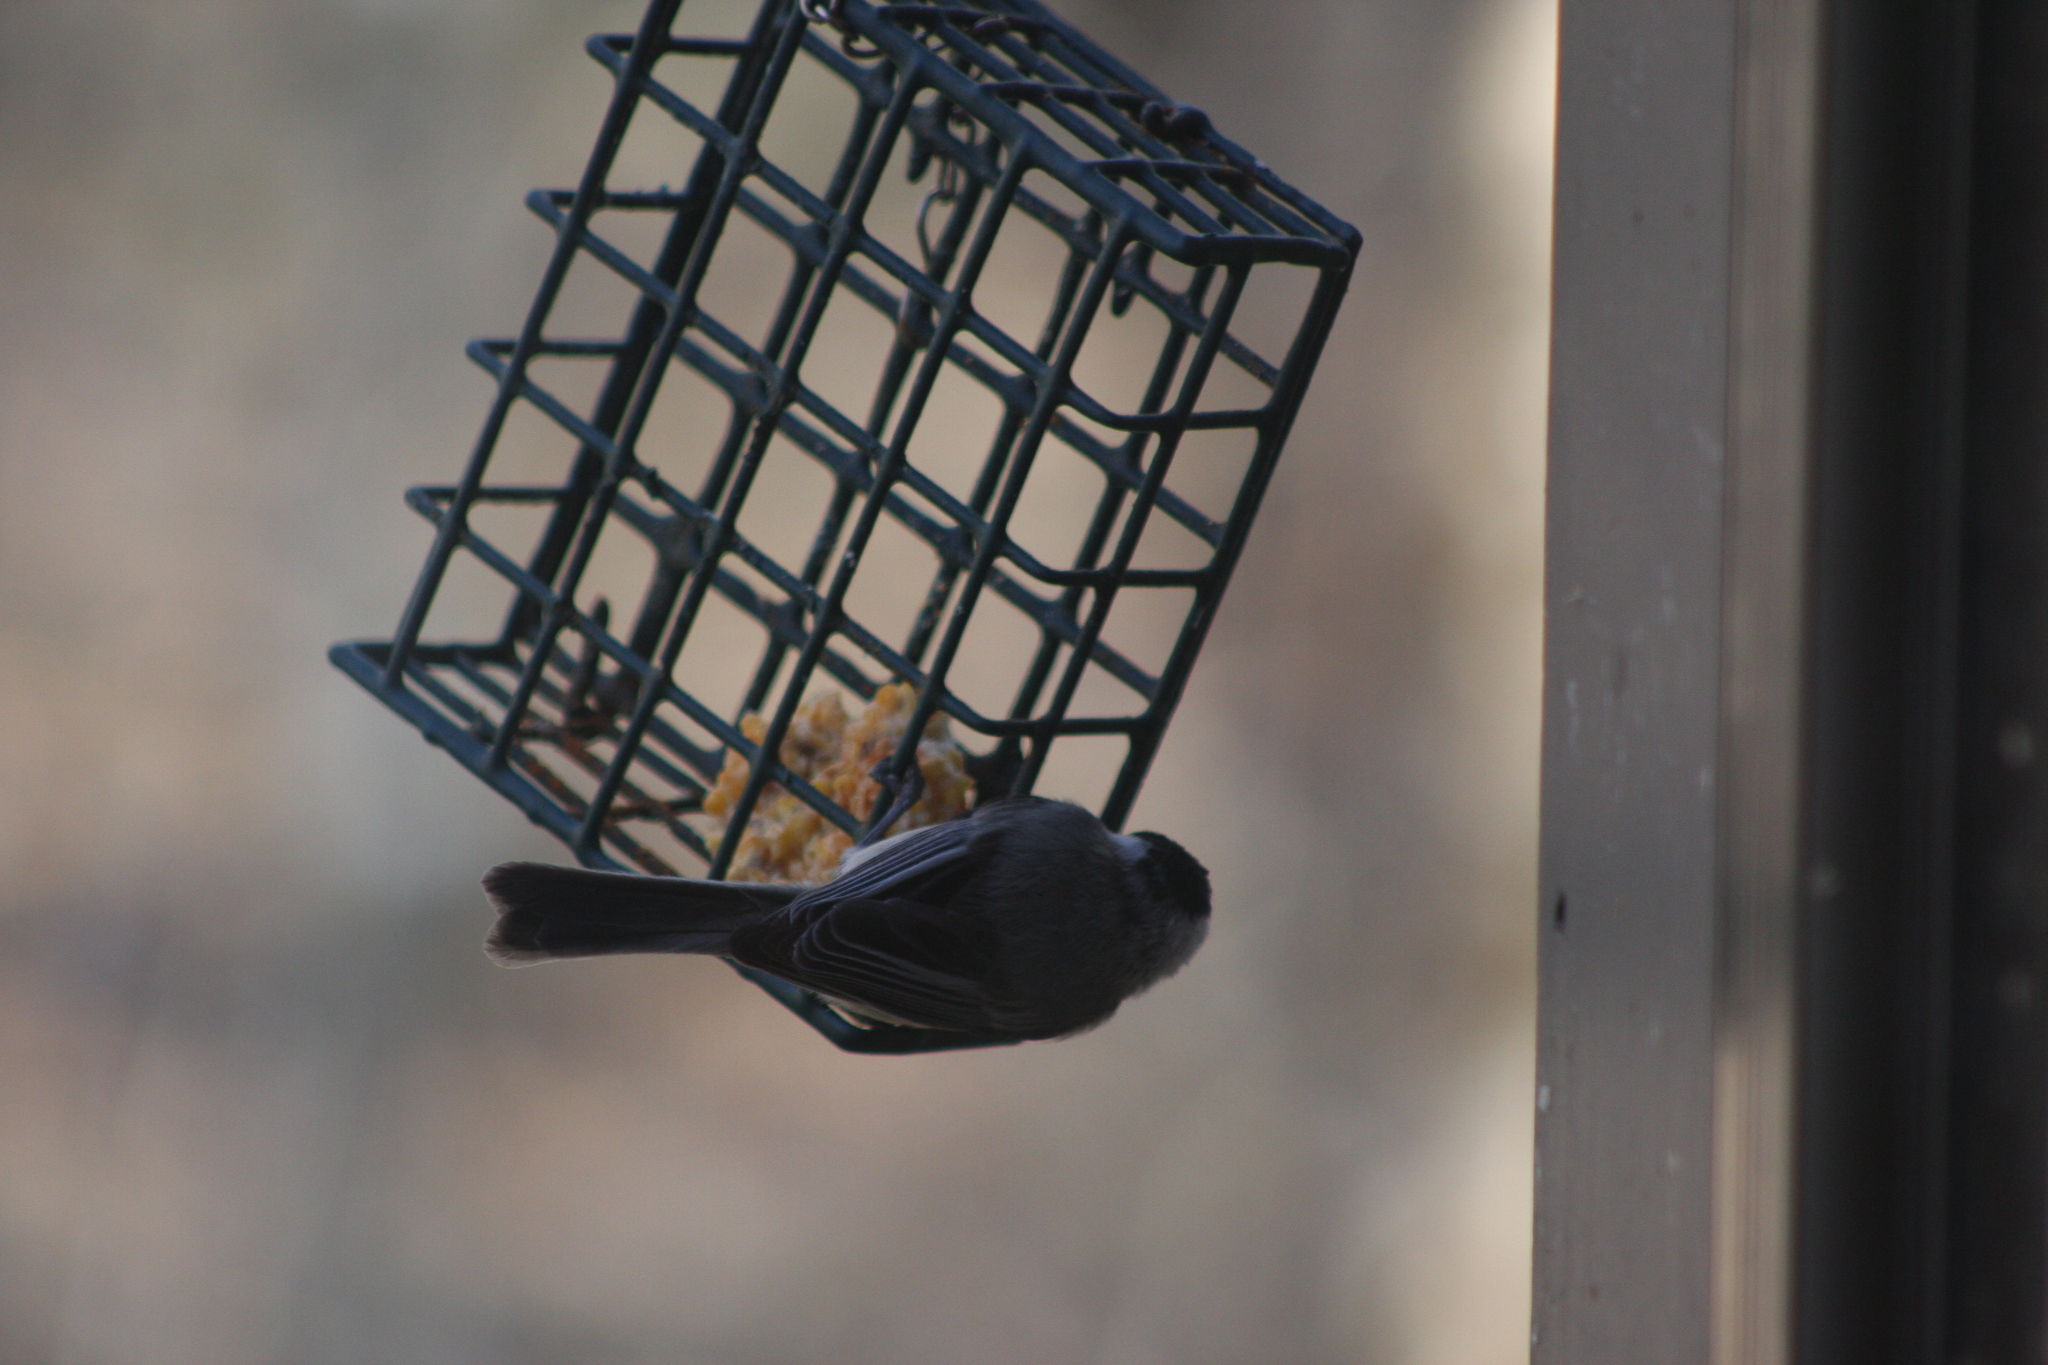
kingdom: Animalia
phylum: Chordata
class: Aves
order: Passeriformes
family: Paridae
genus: Poecile
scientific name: Poecile atricapillus
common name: Black-capped chickadee
